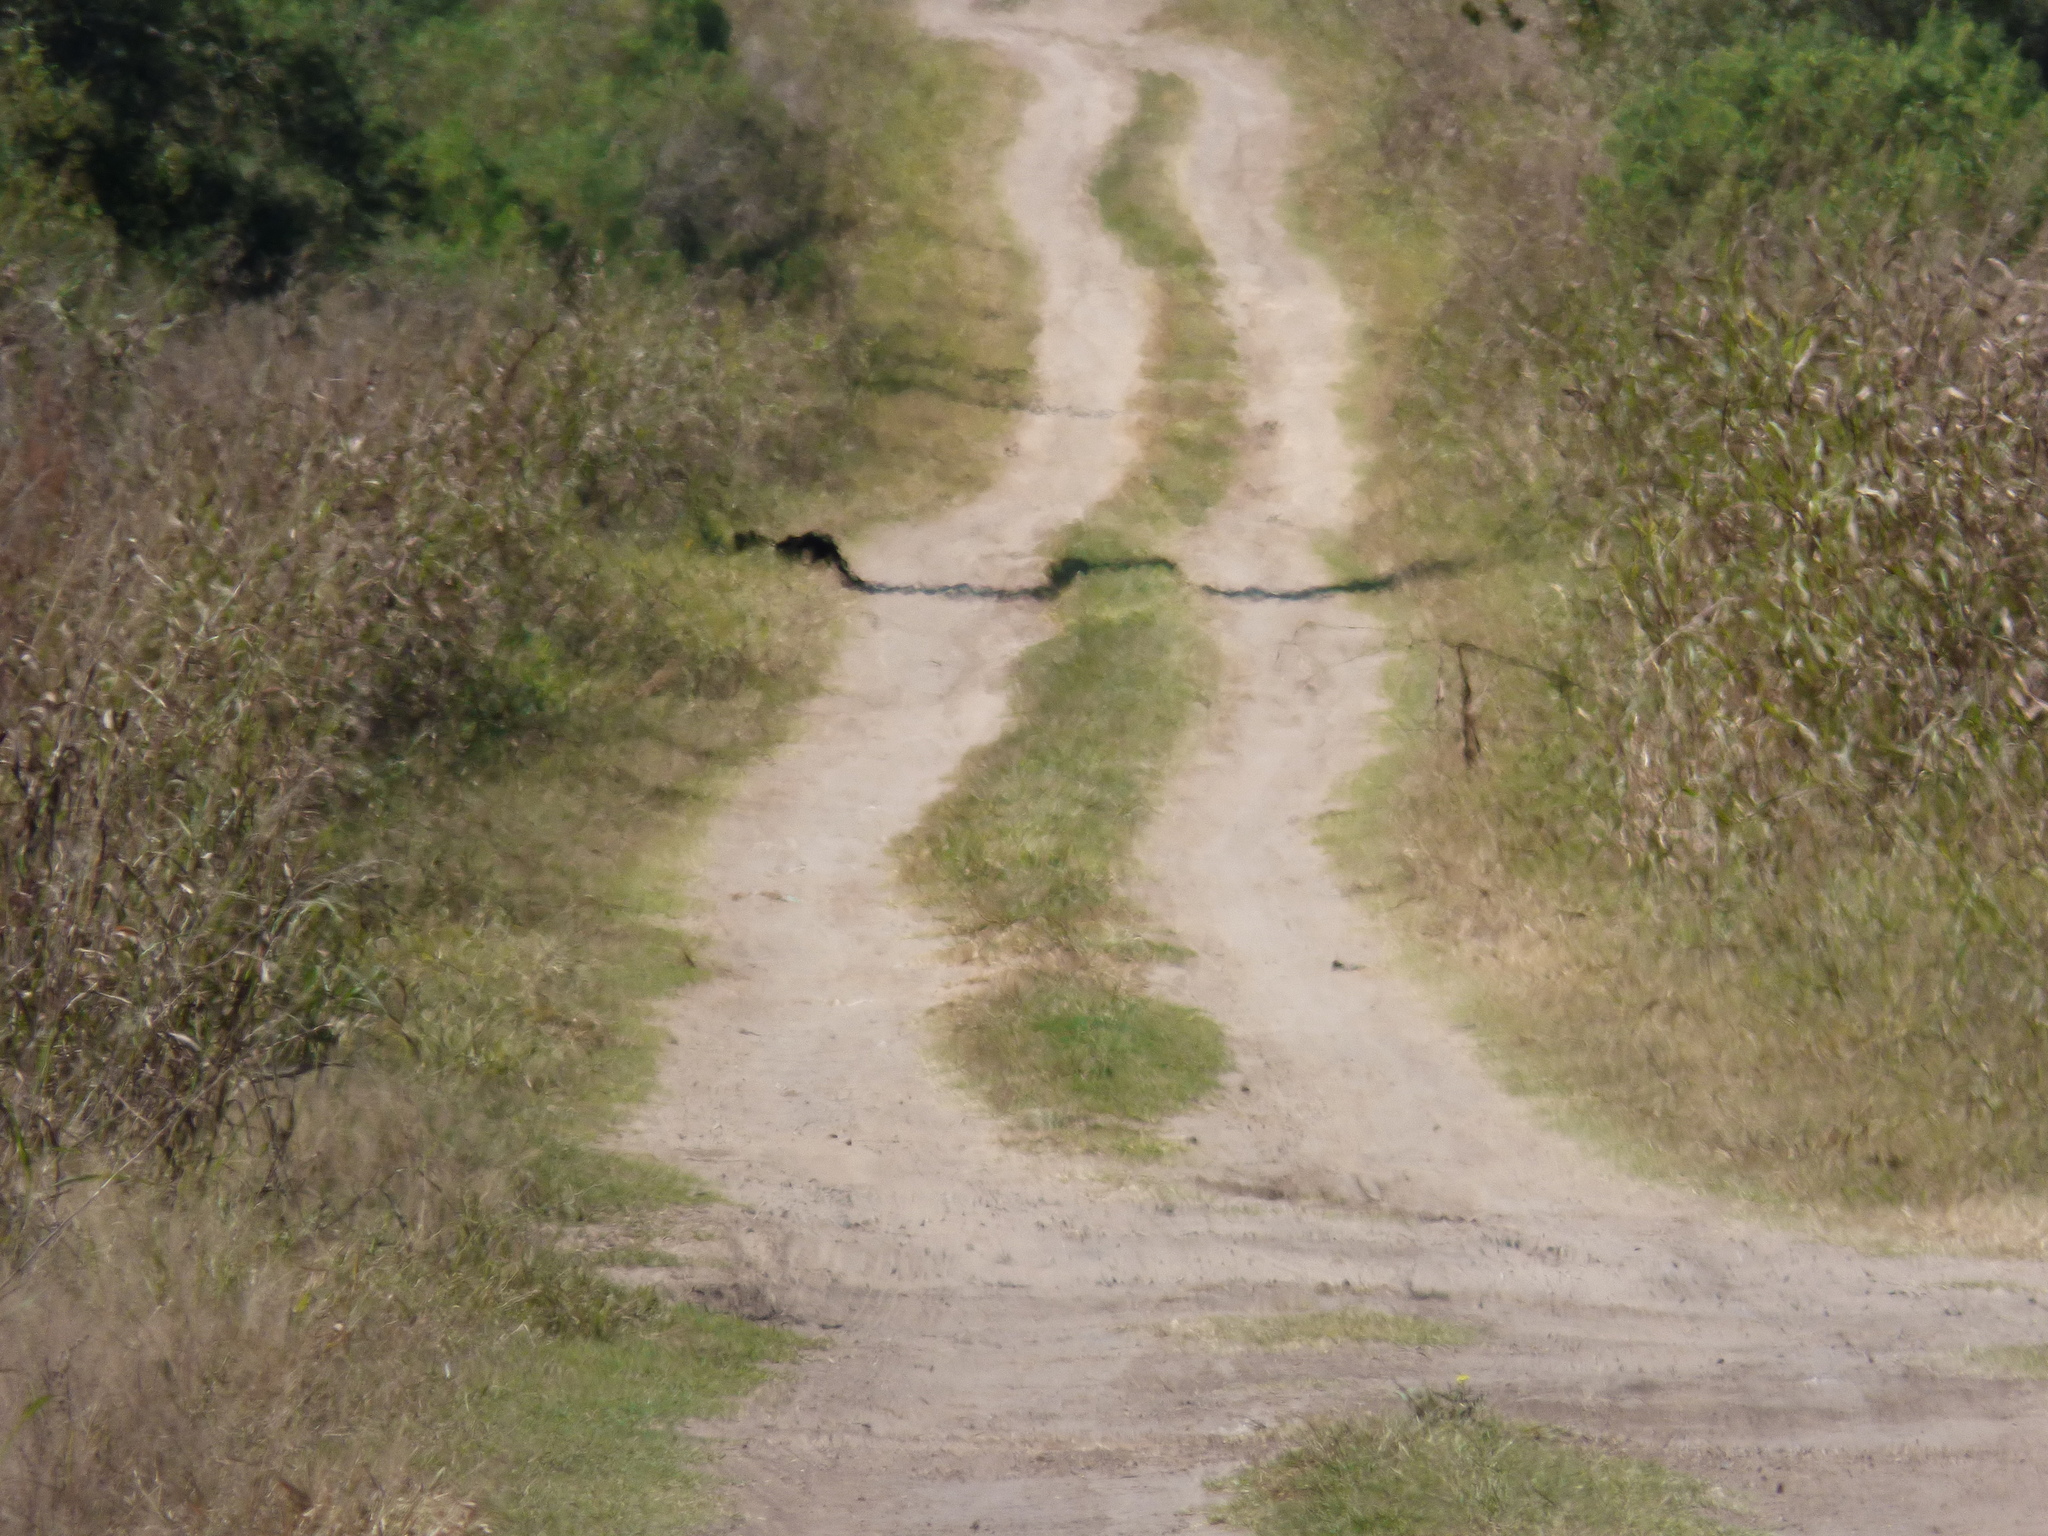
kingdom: Animalia
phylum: Chordata
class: Mammalia
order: Carnivora
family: Felidae
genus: Puma
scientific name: Puma yagouaroundi
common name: Jaguarundi
